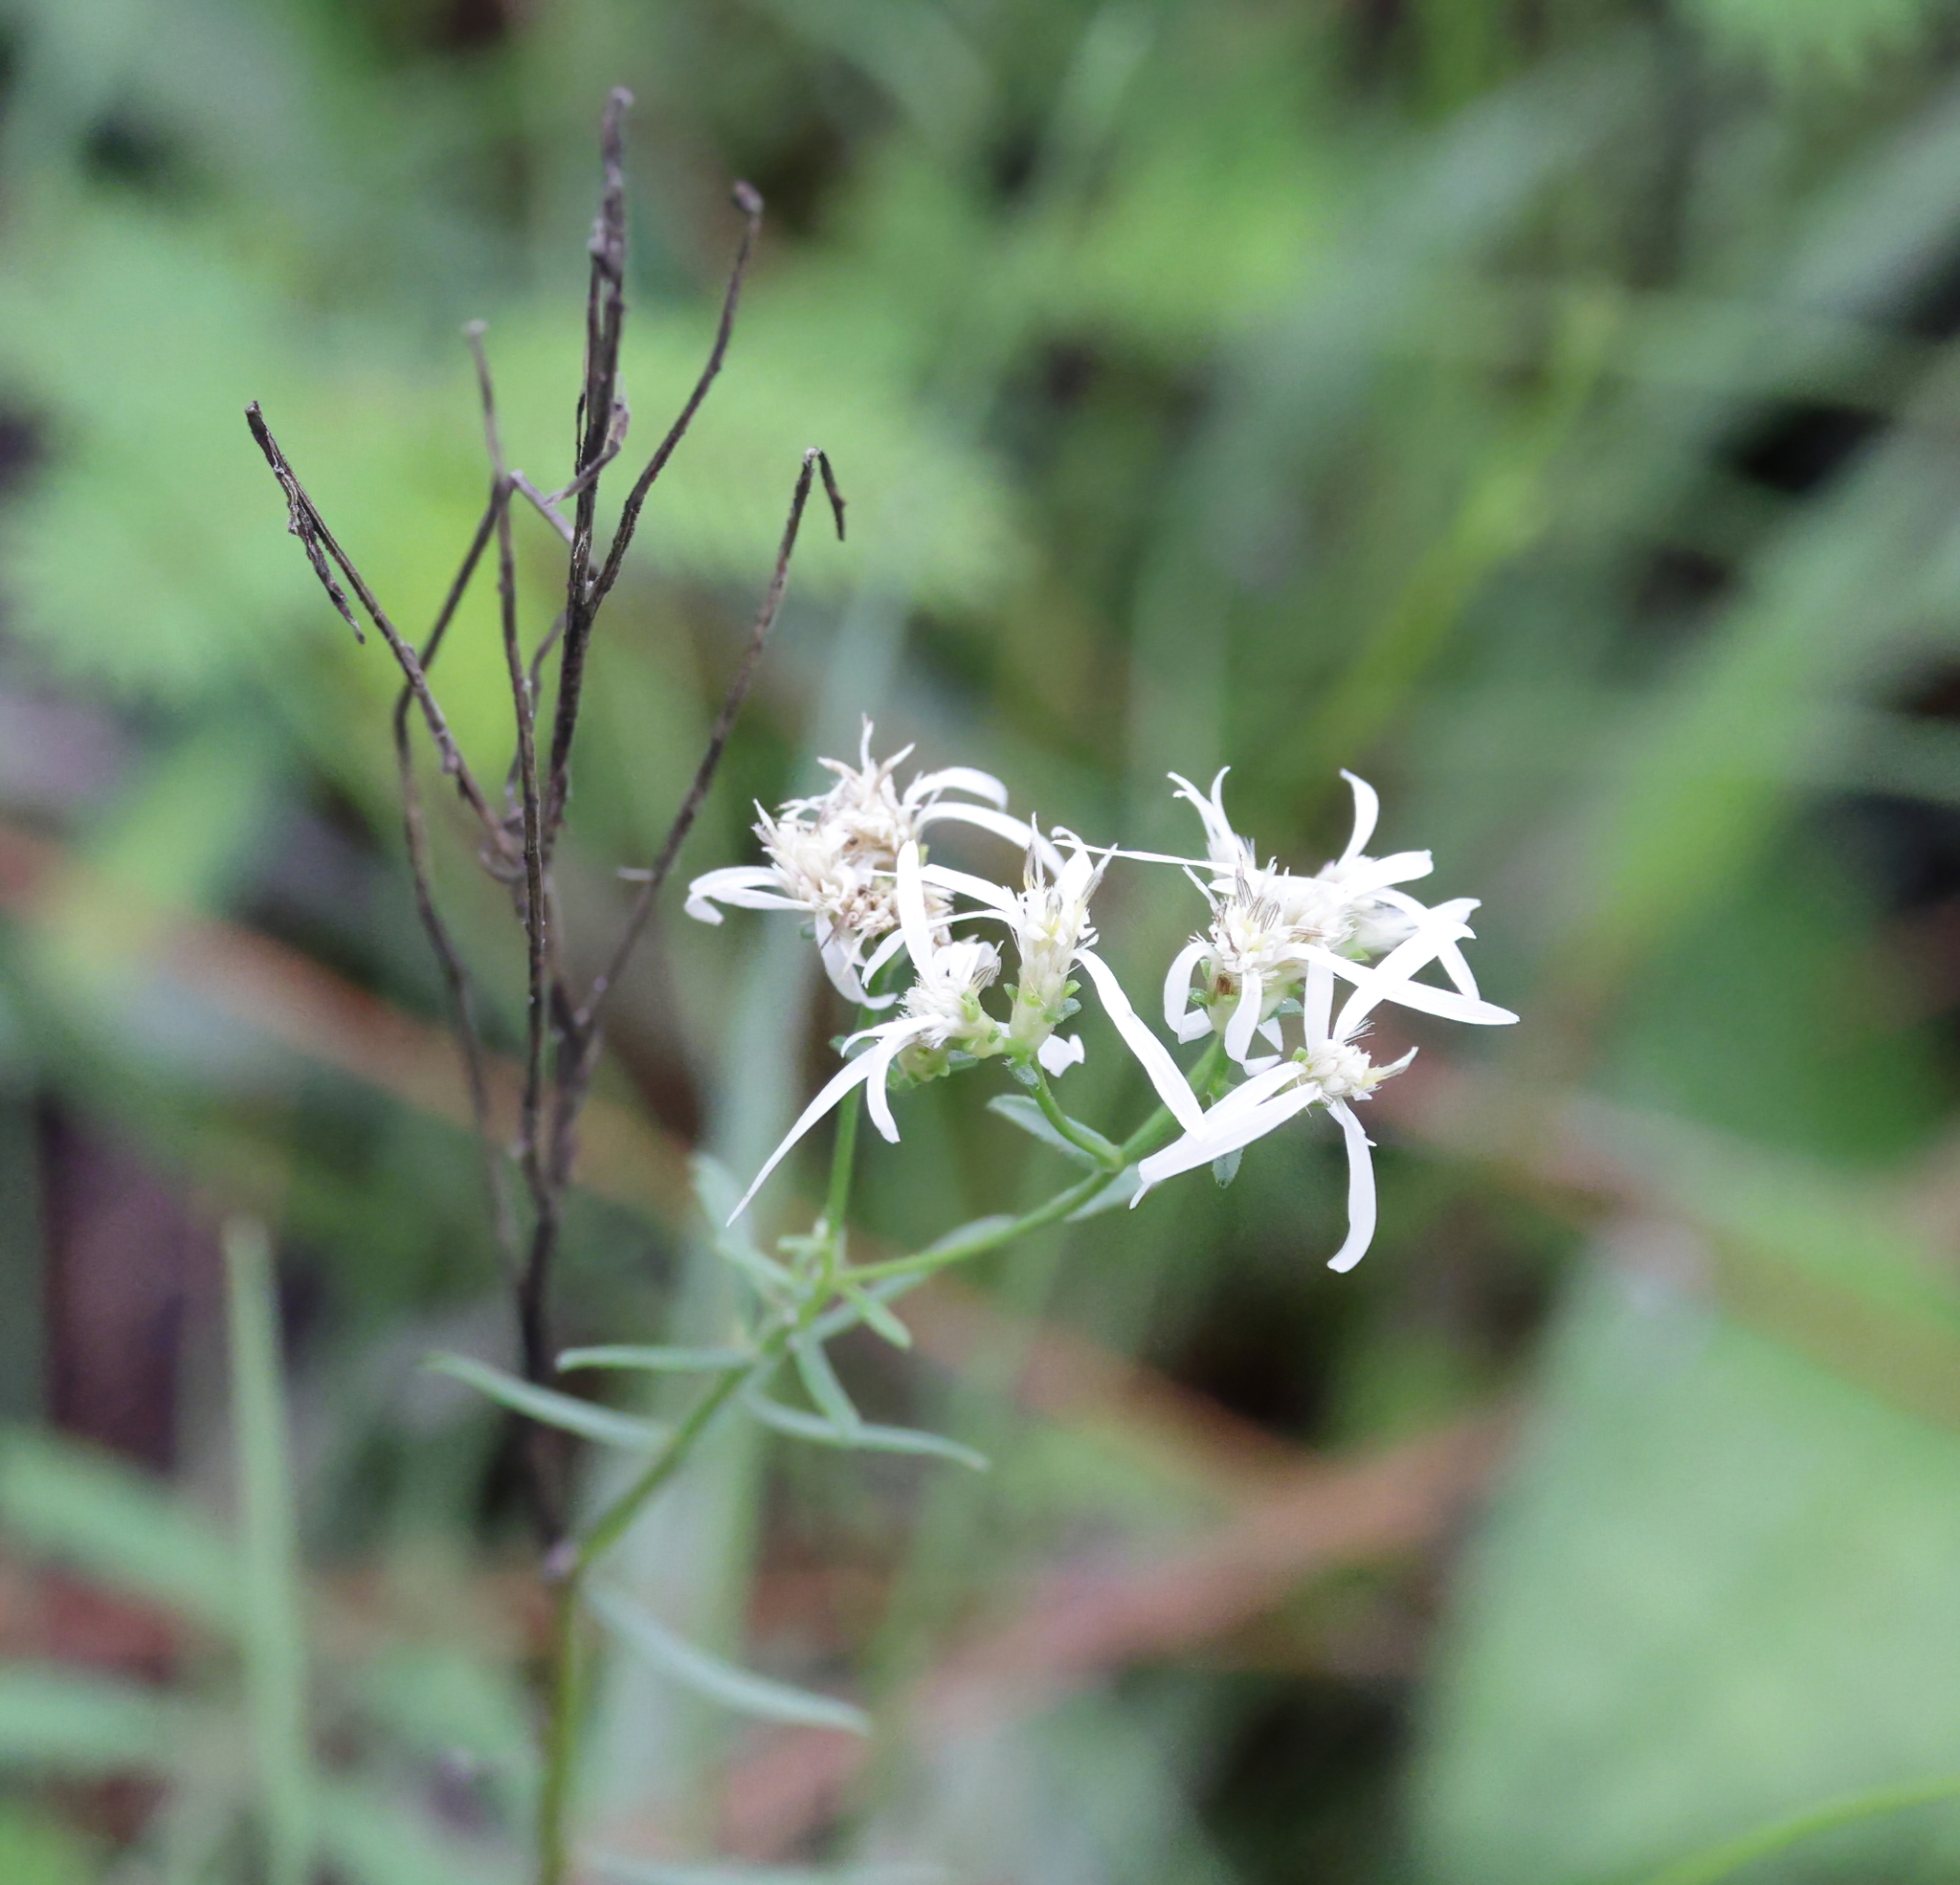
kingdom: Plantae
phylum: Tracheophyta
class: Magnoliopsida
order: Asterales
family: Asteraceae
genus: Sericocarpus
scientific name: Sericocarpus linifolius
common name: Narrow-leaf aster
